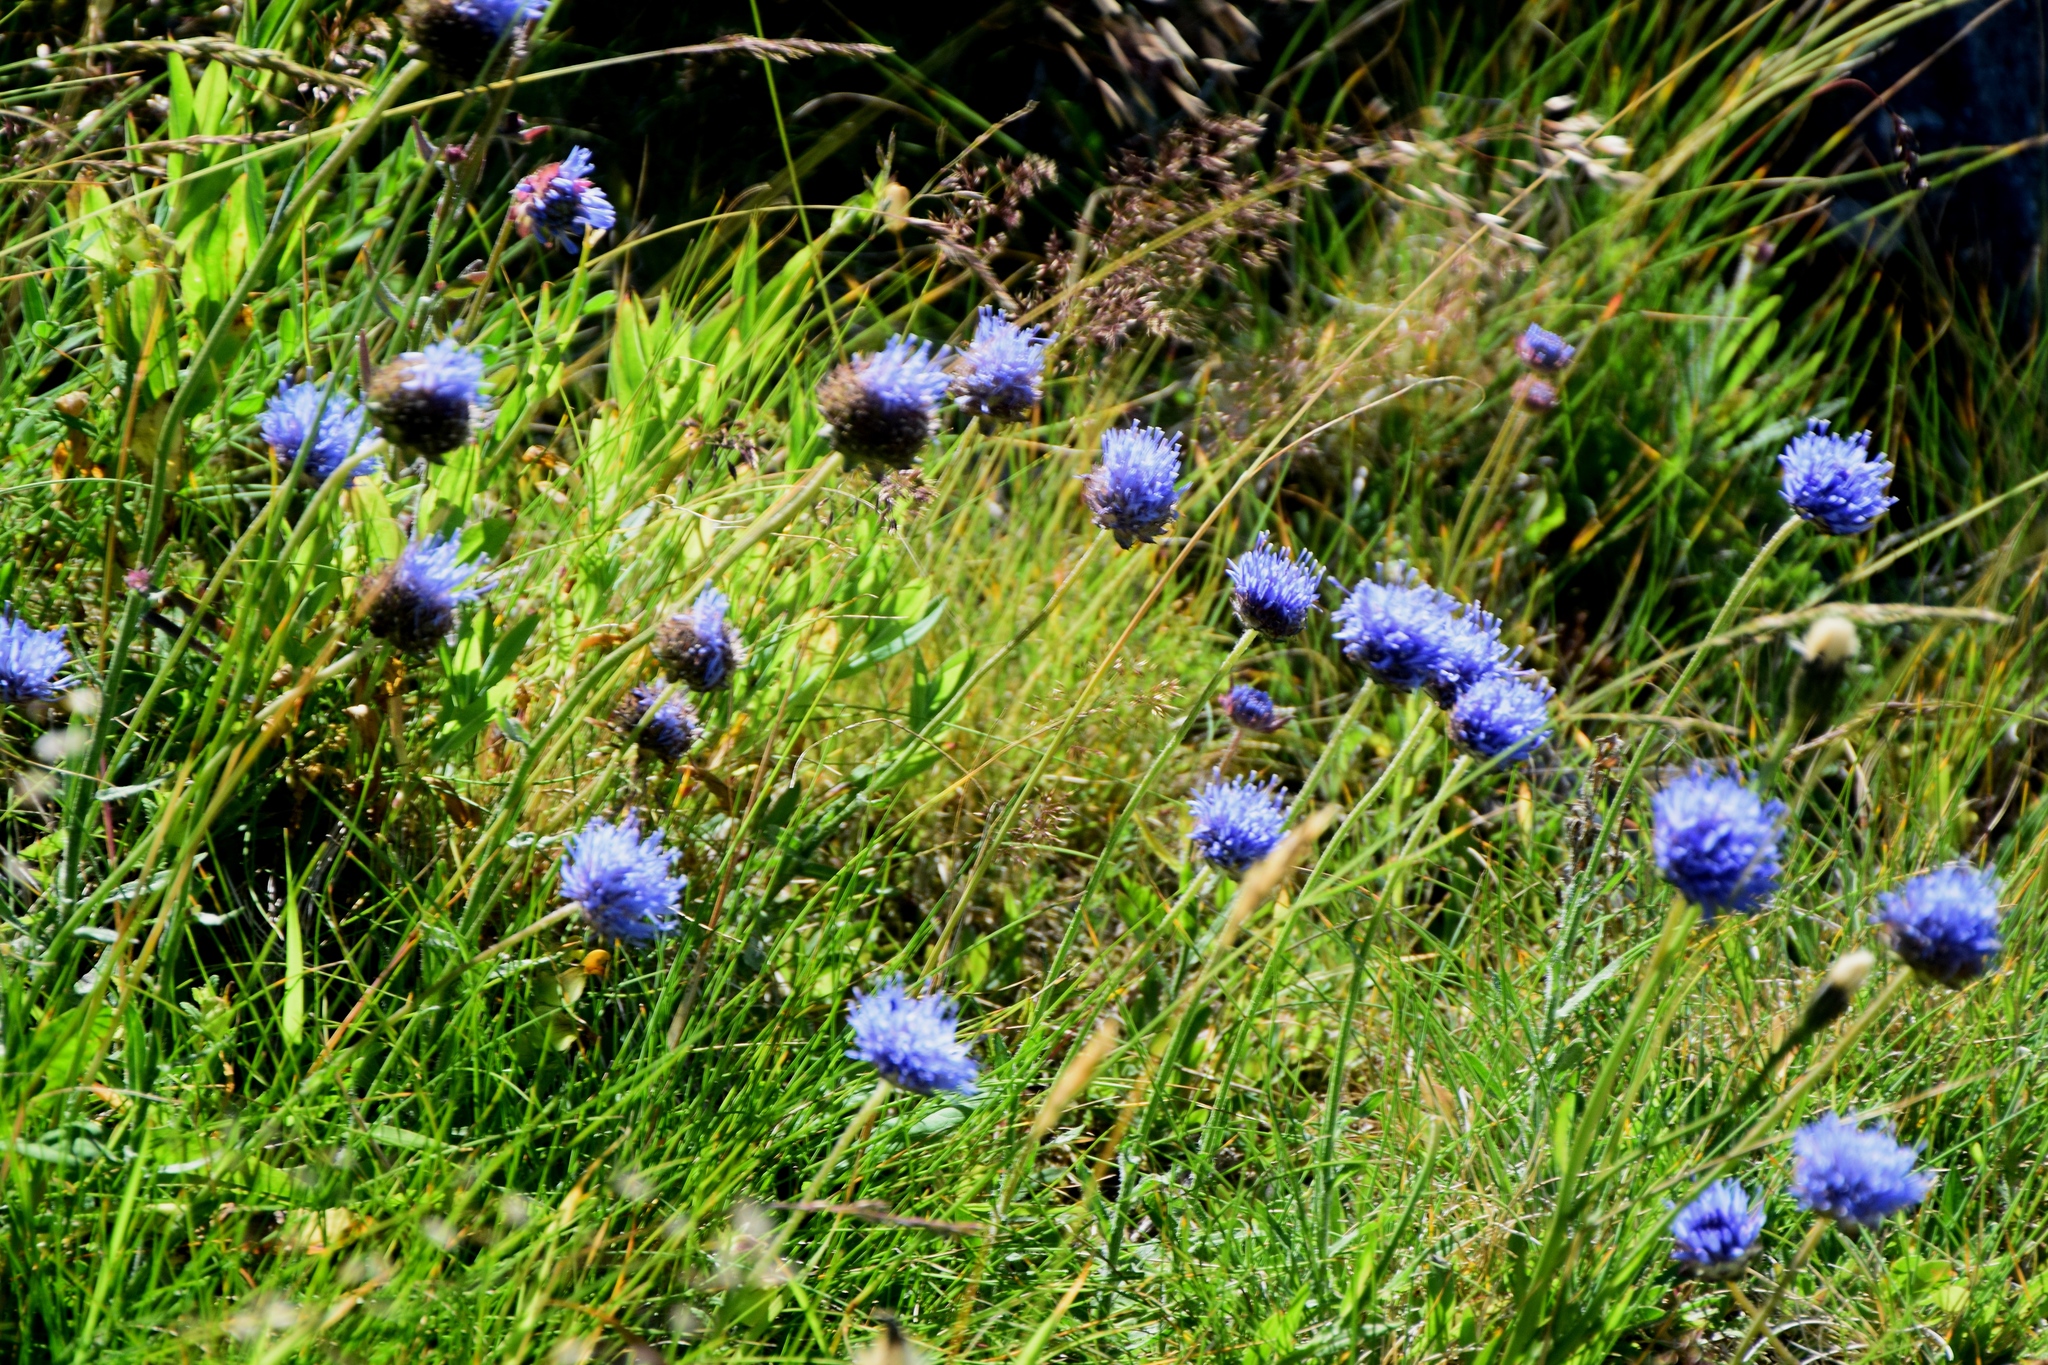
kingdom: Plantae
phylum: Tracheophyta
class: Magnoliopsida
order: Asterales
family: Campanulaceae
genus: Jasione
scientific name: Jasione montana
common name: Sheep's-bit
